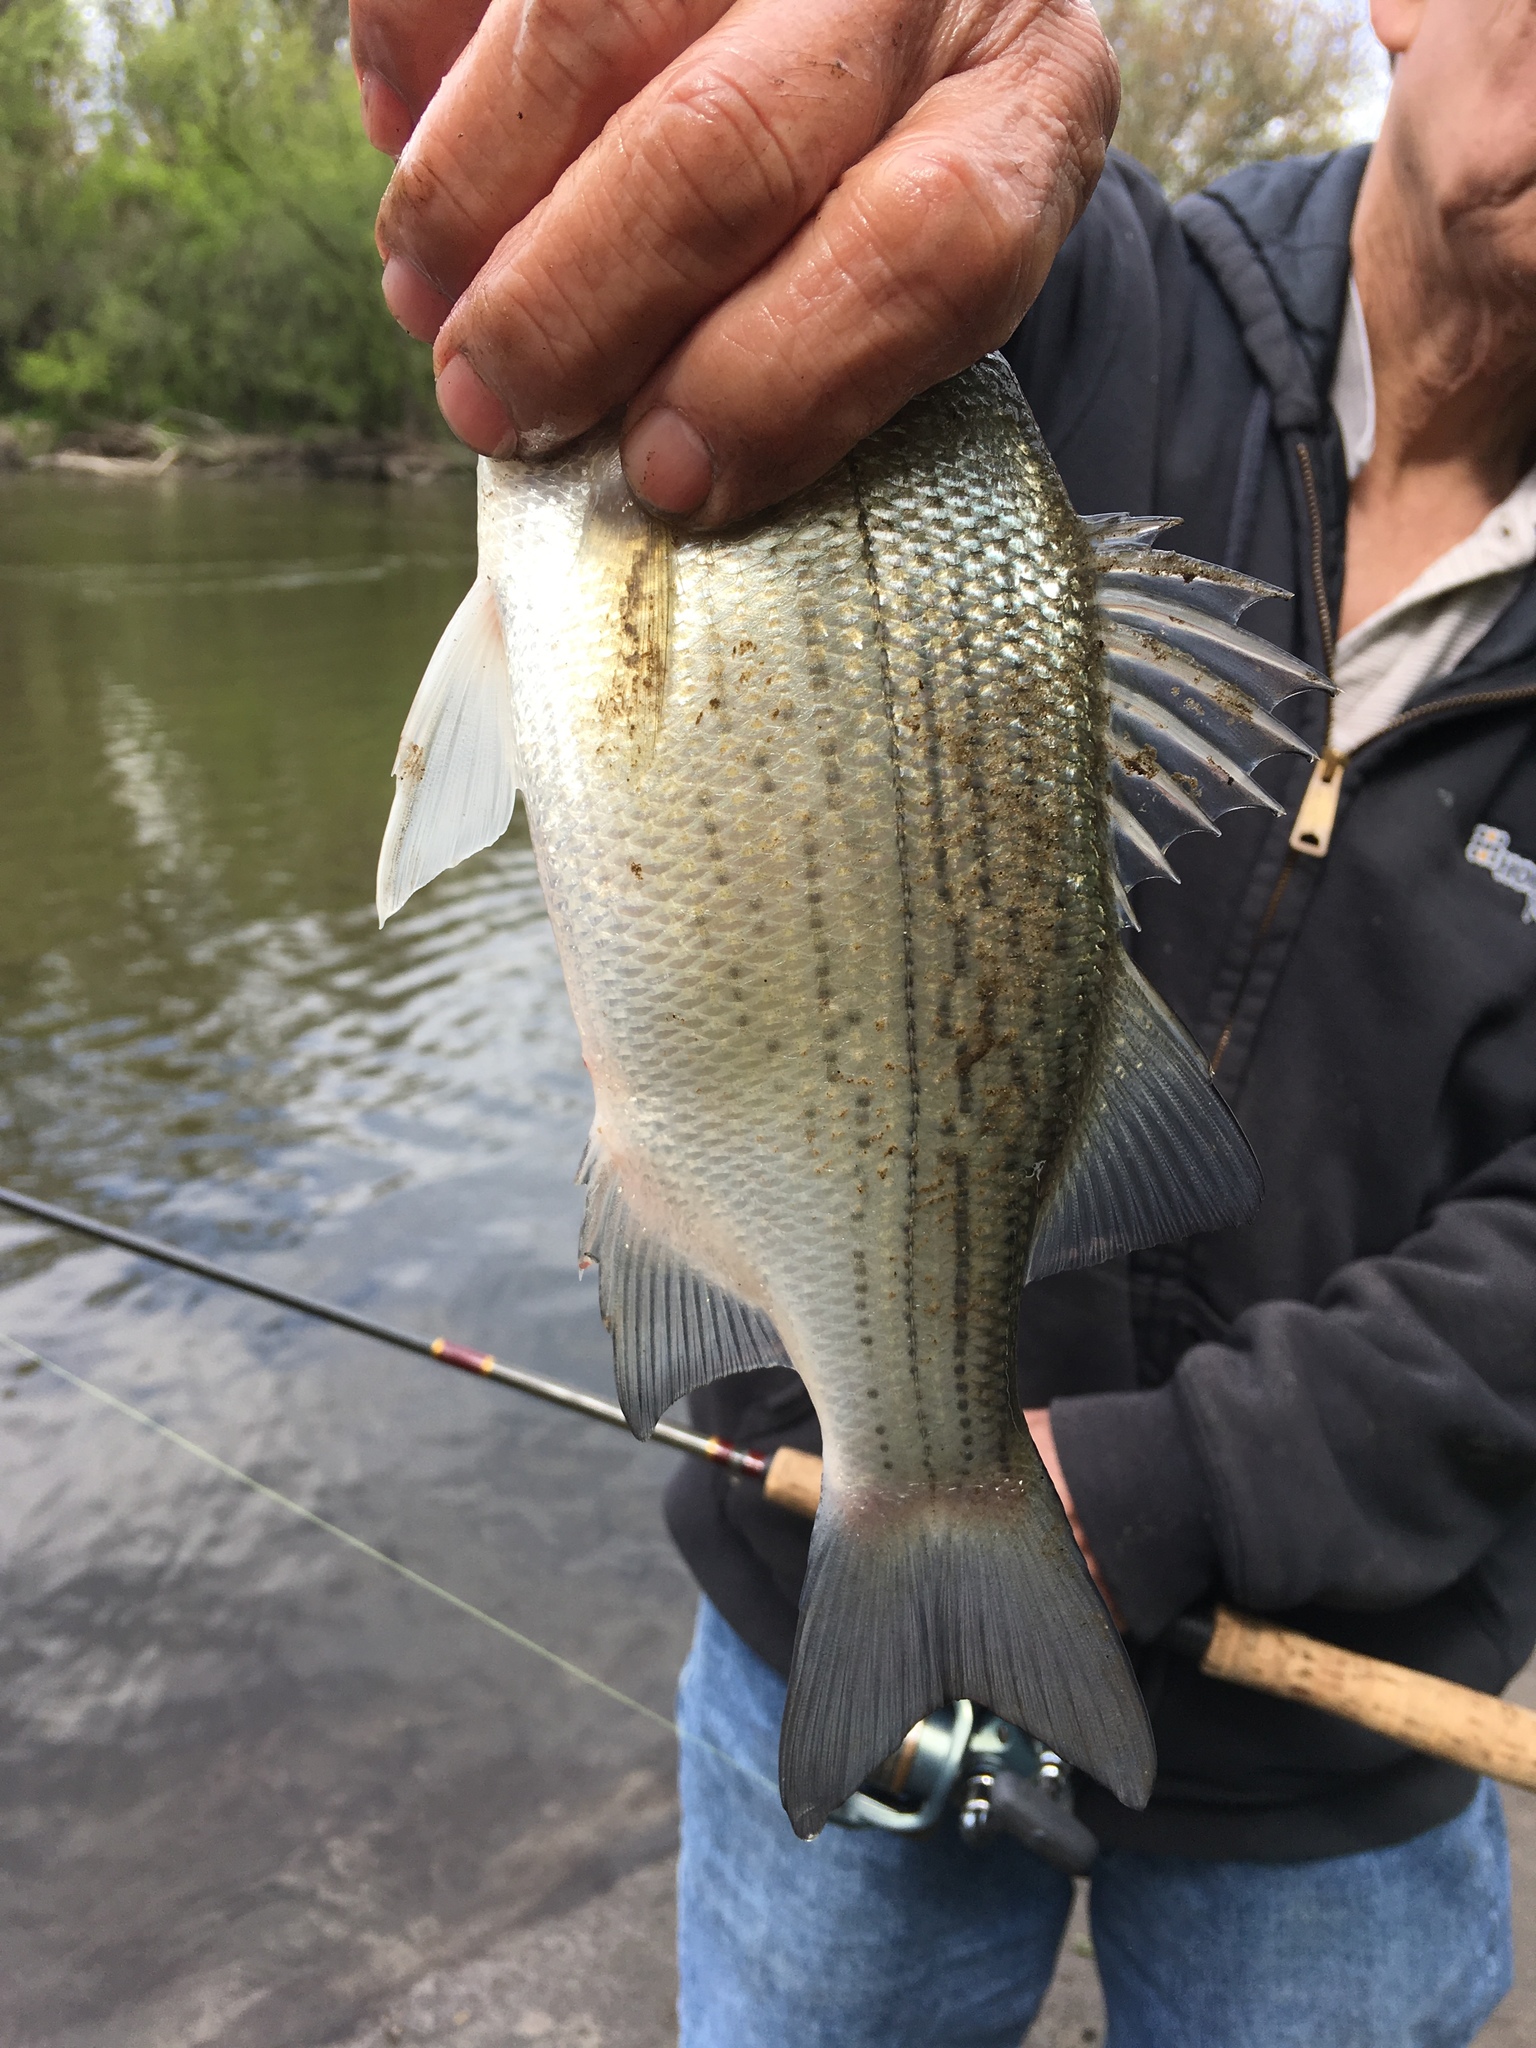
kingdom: Animalia
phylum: Chordata
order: Perciformes
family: Moronidae
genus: Morone
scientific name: Morone chrysops
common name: White bass
